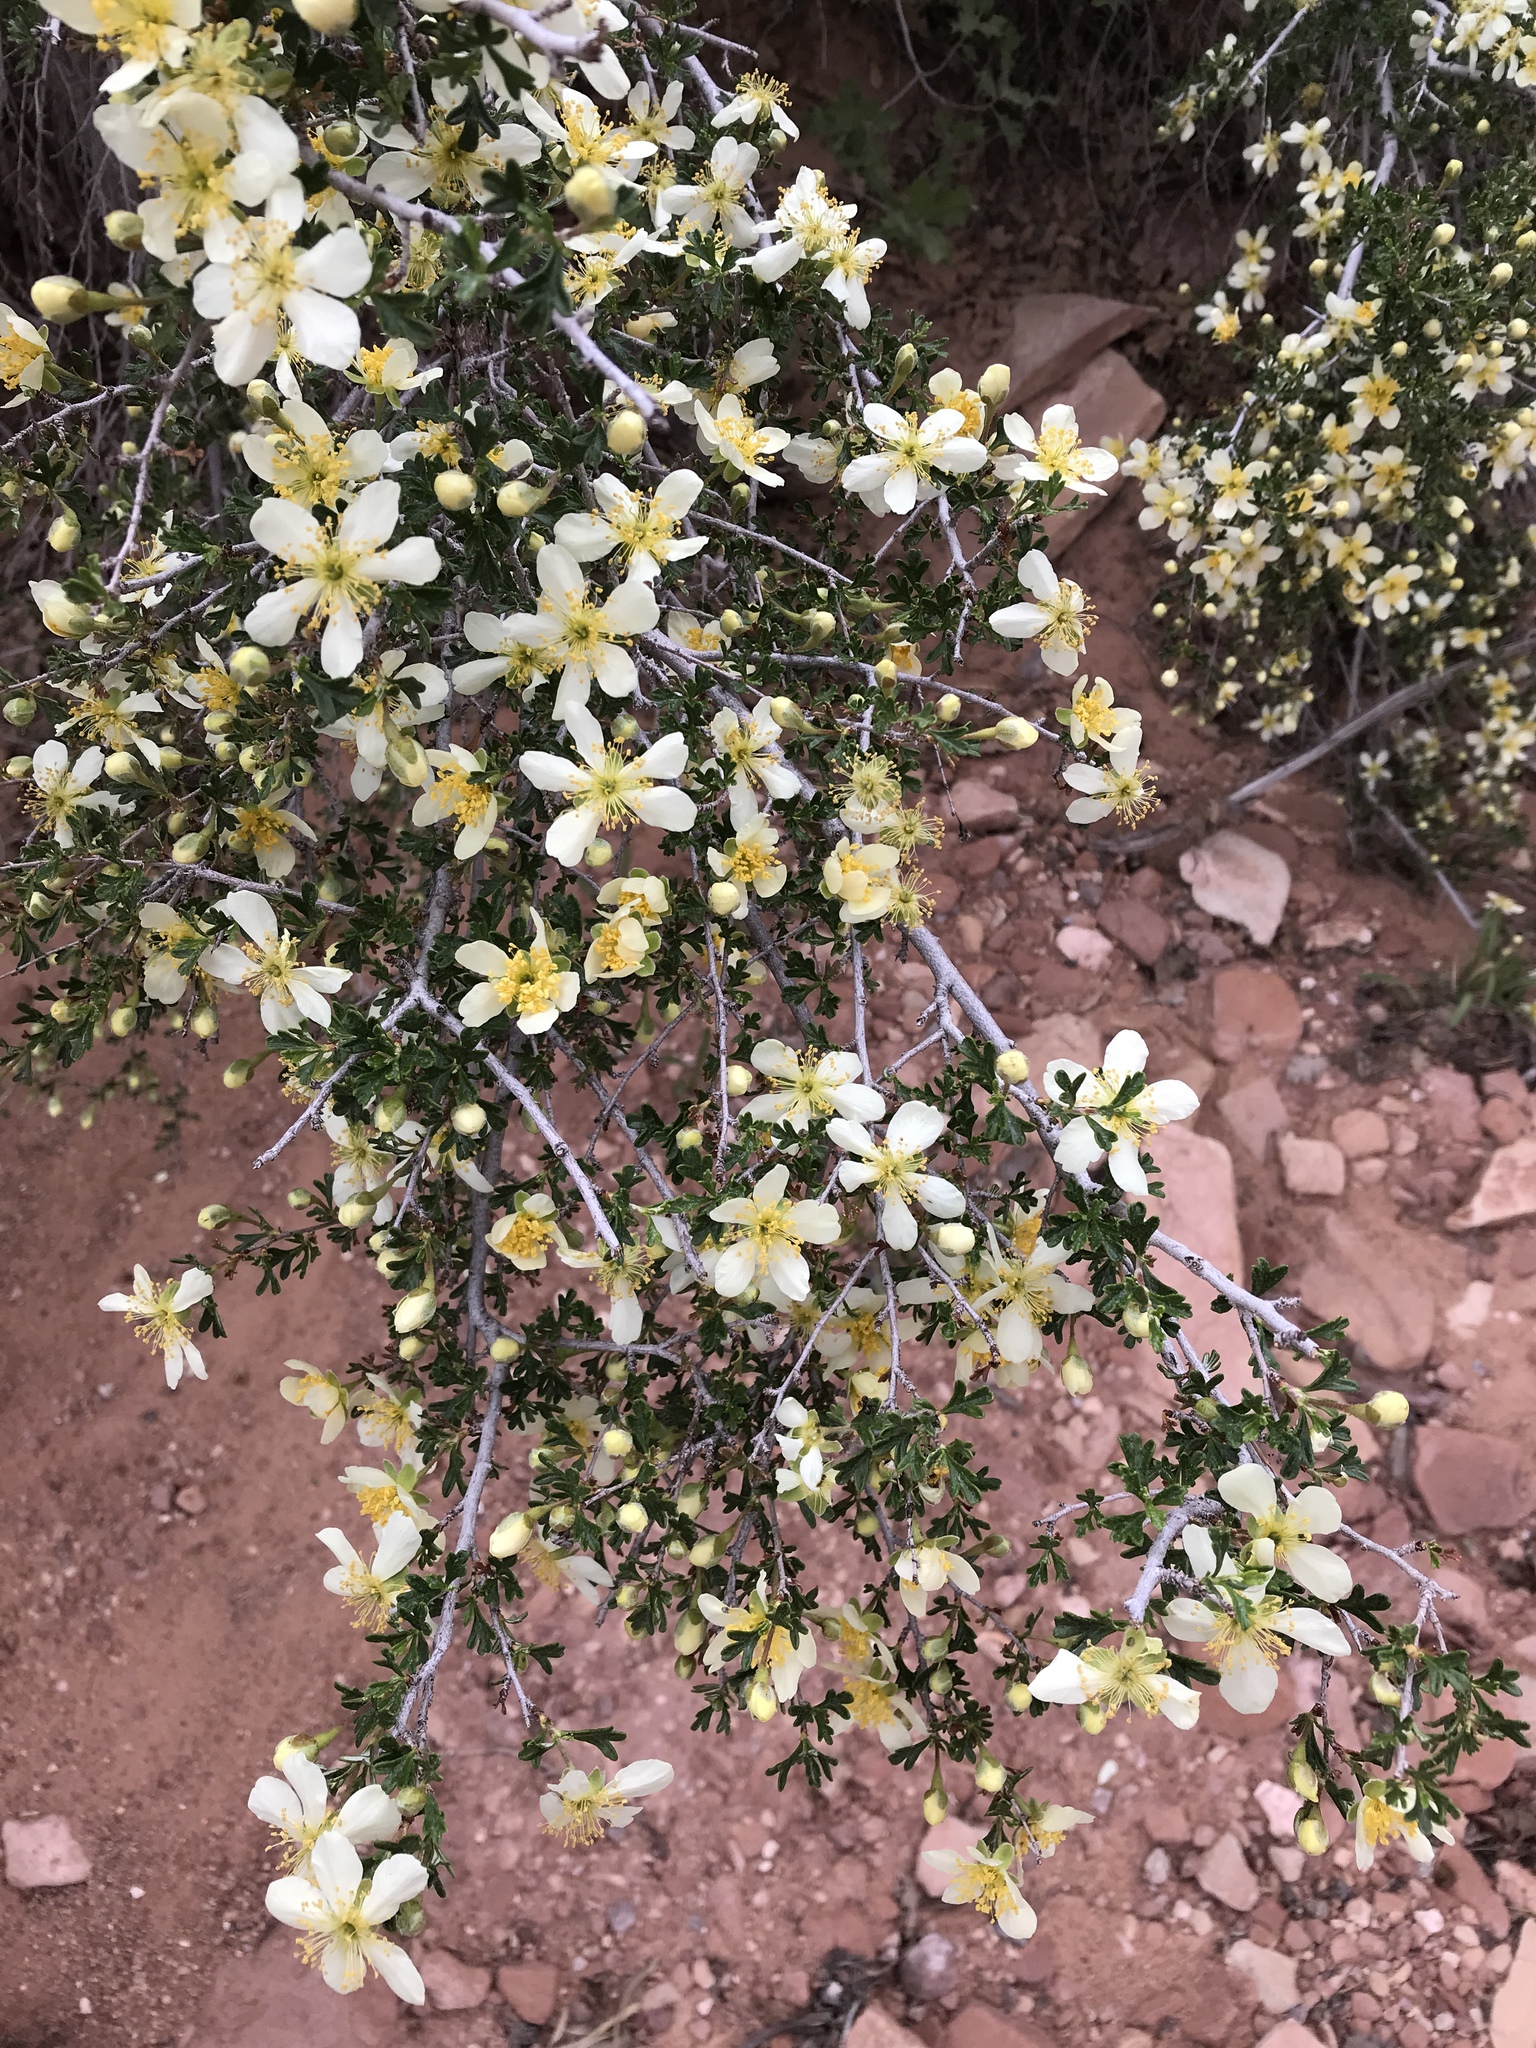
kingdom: Plantae
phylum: Tracheophyta
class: Magnoliopsida
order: Rosales
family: Rosaceae
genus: Purshia
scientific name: Purshia stansburiana
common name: Stansbury's cliffrose
